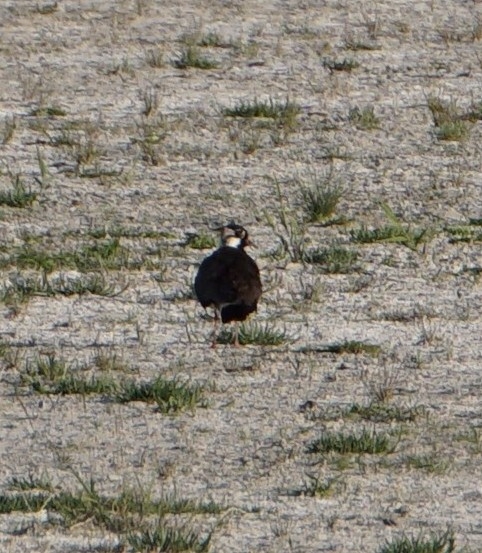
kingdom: Animalia
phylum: Chordata
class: Aves
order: Charadriiformes
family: Charadriidae
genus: Vanellus
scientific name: Vanellus vanellus
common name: Northern lapwing
